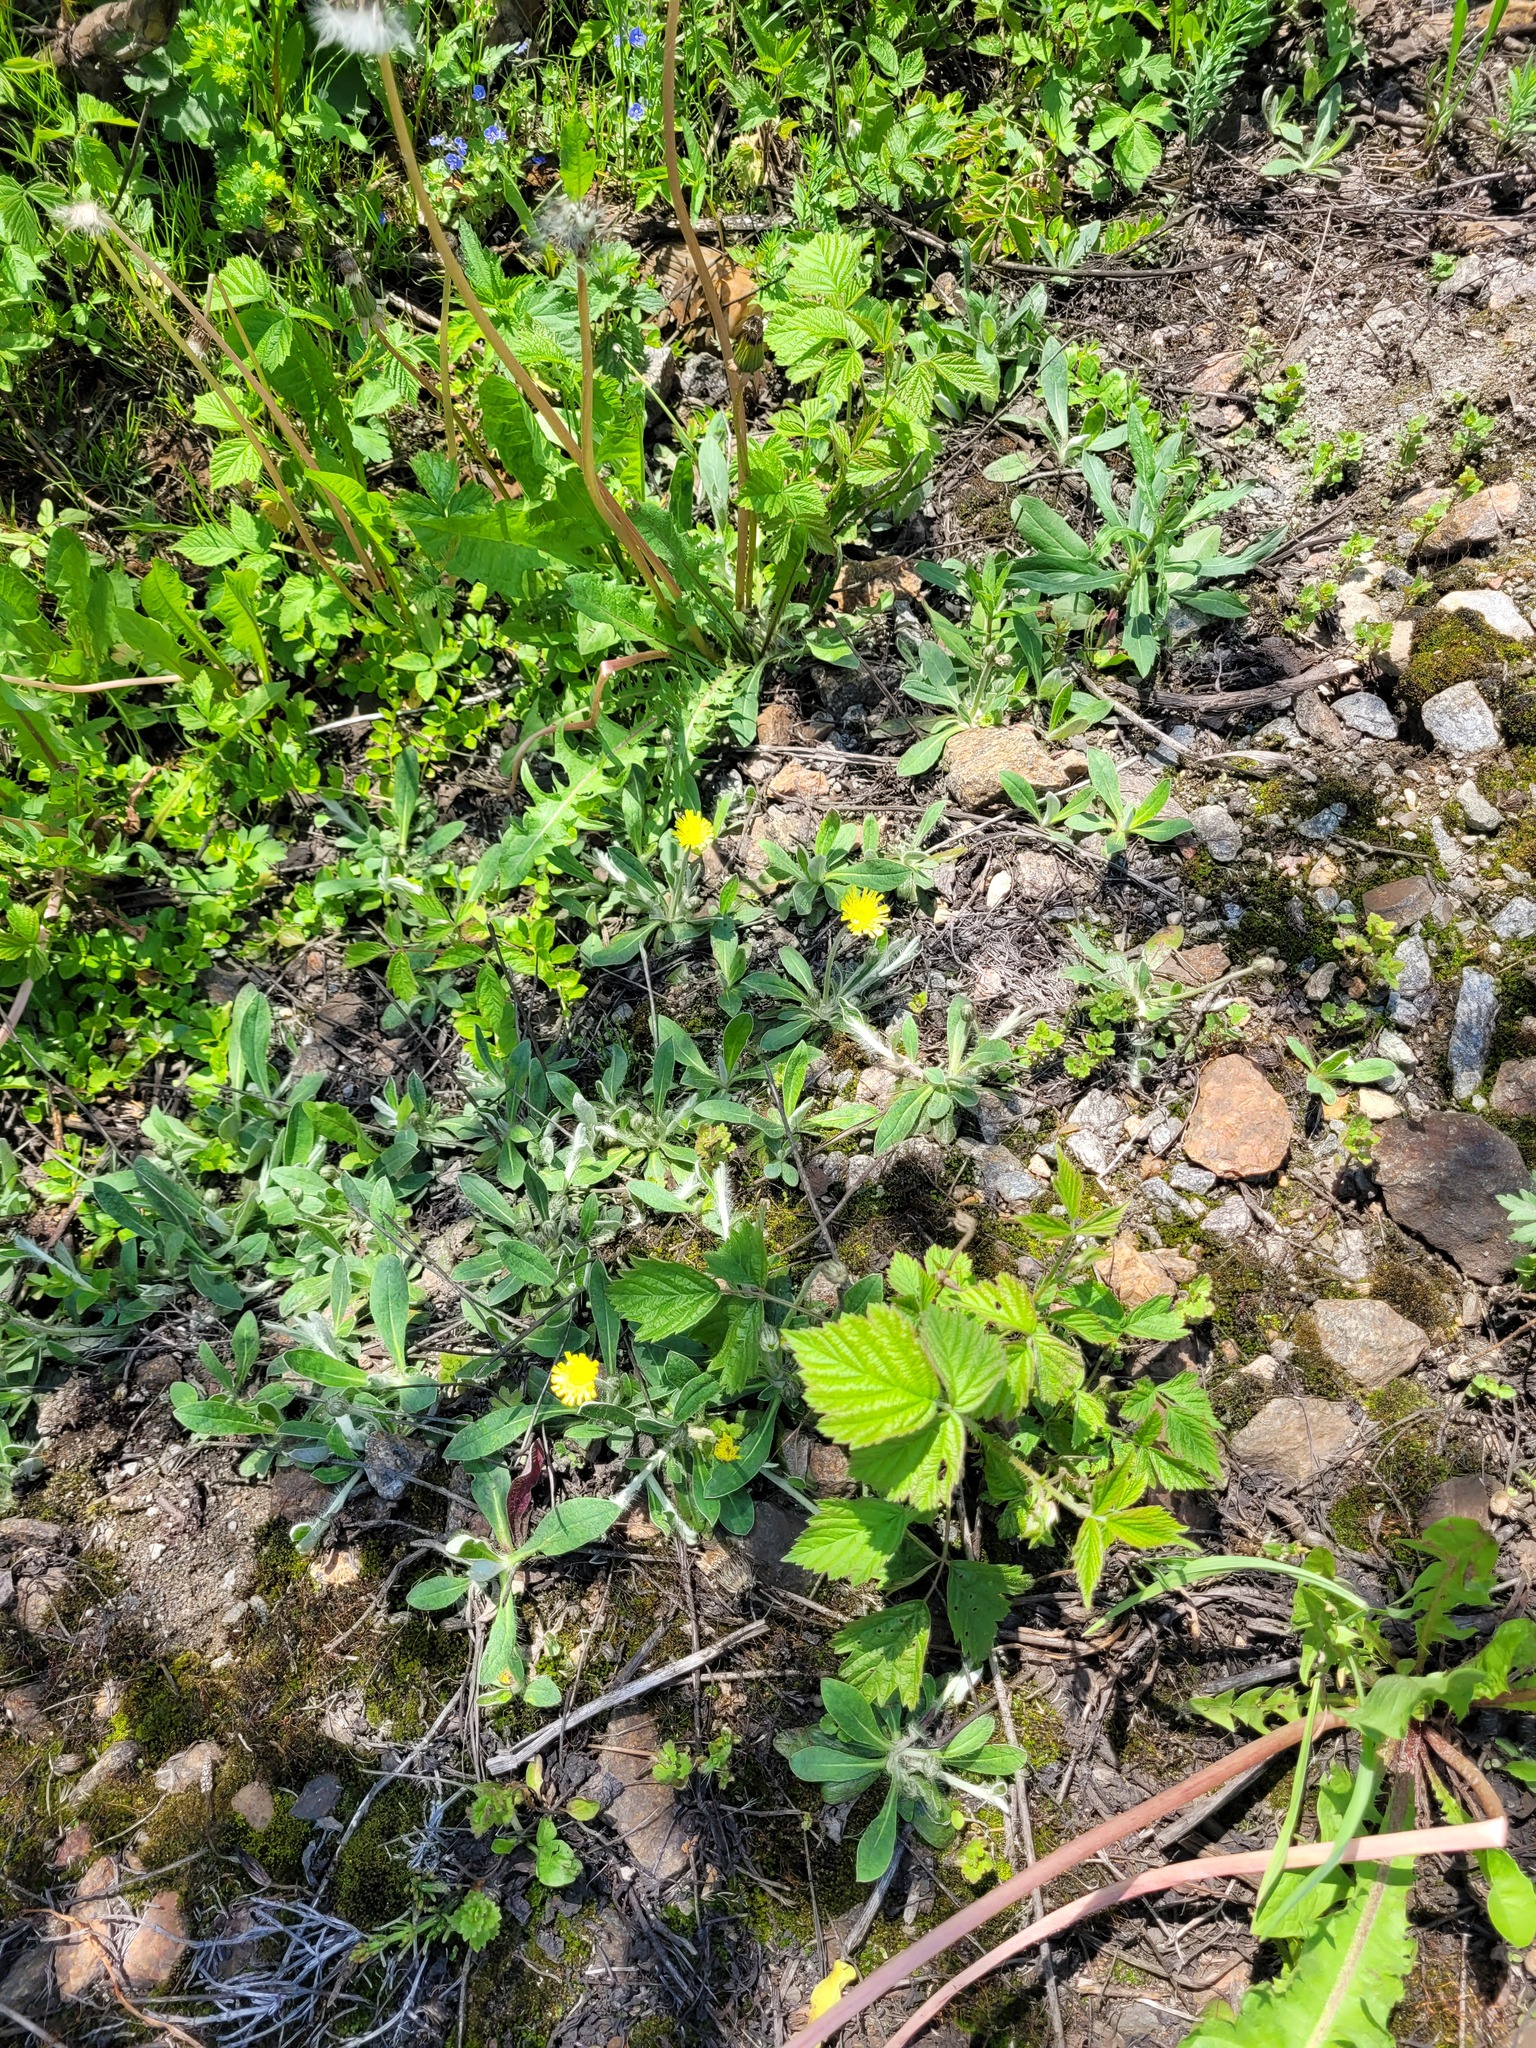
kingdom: Plantae
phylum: Tracheophyta
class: Magnoliopsida
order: Asterales
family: Asteraceae
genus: Pilosella
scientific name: Pilosella officinarum
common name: Mouse-ear hawkweed
